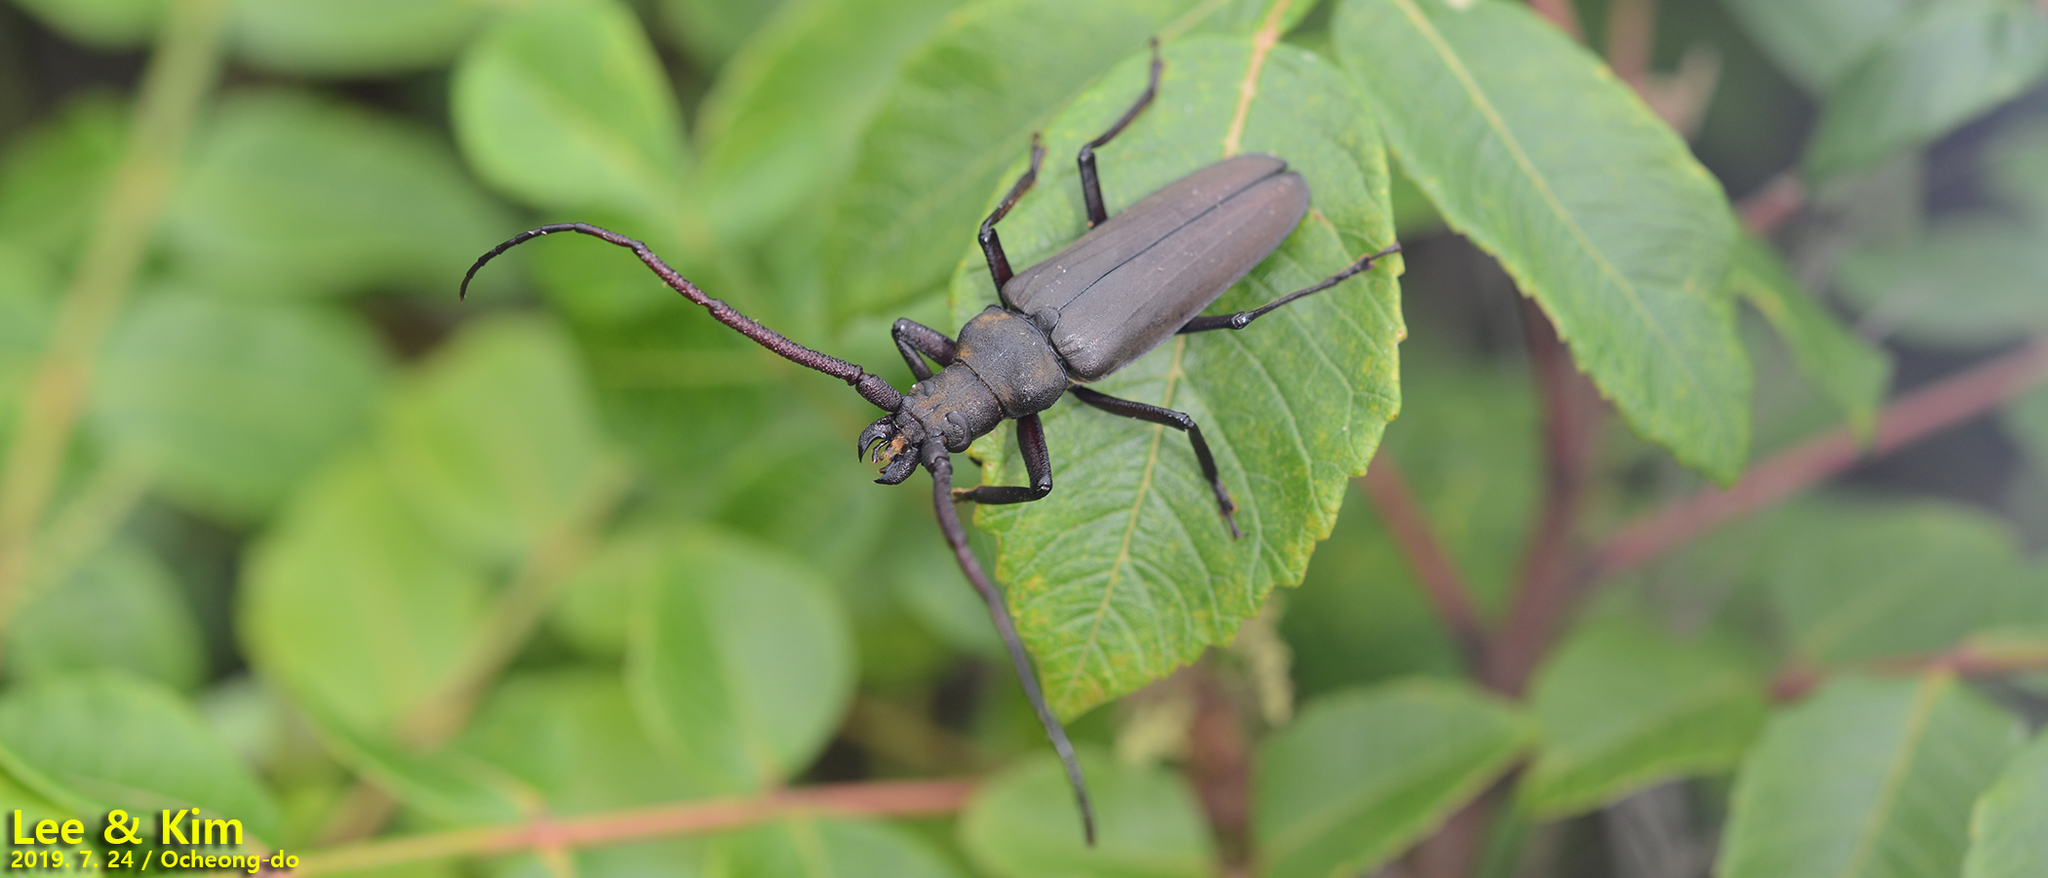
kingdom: Animalia
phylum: Arthropoda
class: Insecta
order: Coleoptera
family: Cerambycidae
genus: Aegosoma
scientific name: Aegosoma sinicum
